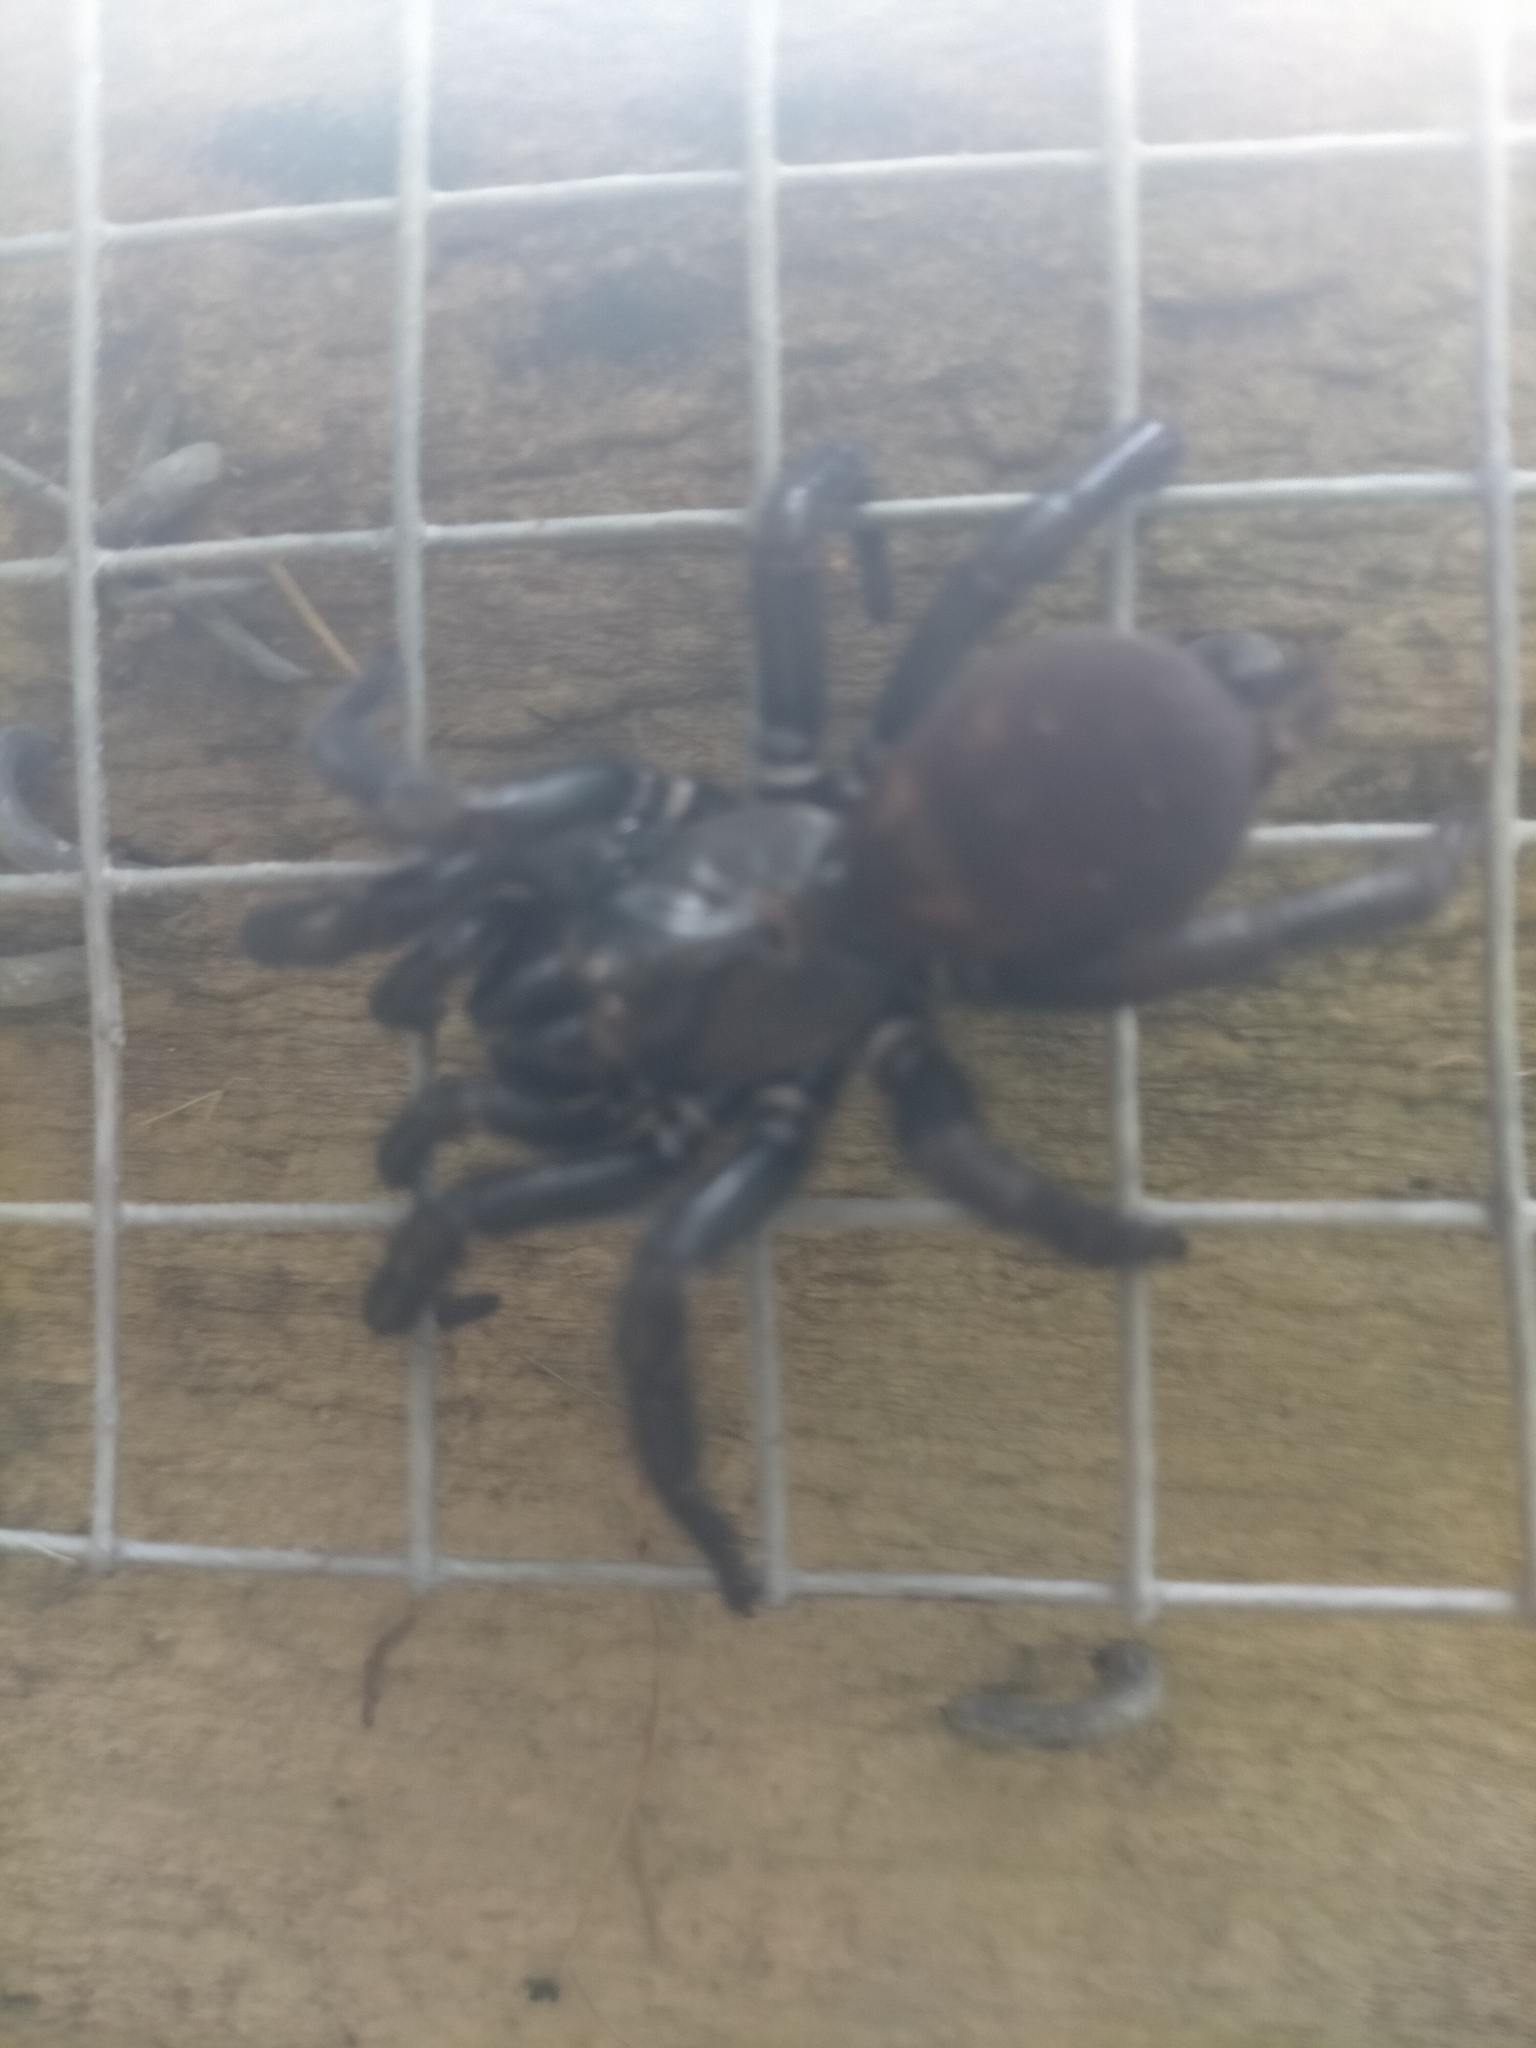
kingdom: Animalia
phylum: Arthropoda
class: Arachnida
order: Araneae
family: Porrhothelidae
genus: Porrhothele
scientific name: Porrhothele antipodiana
